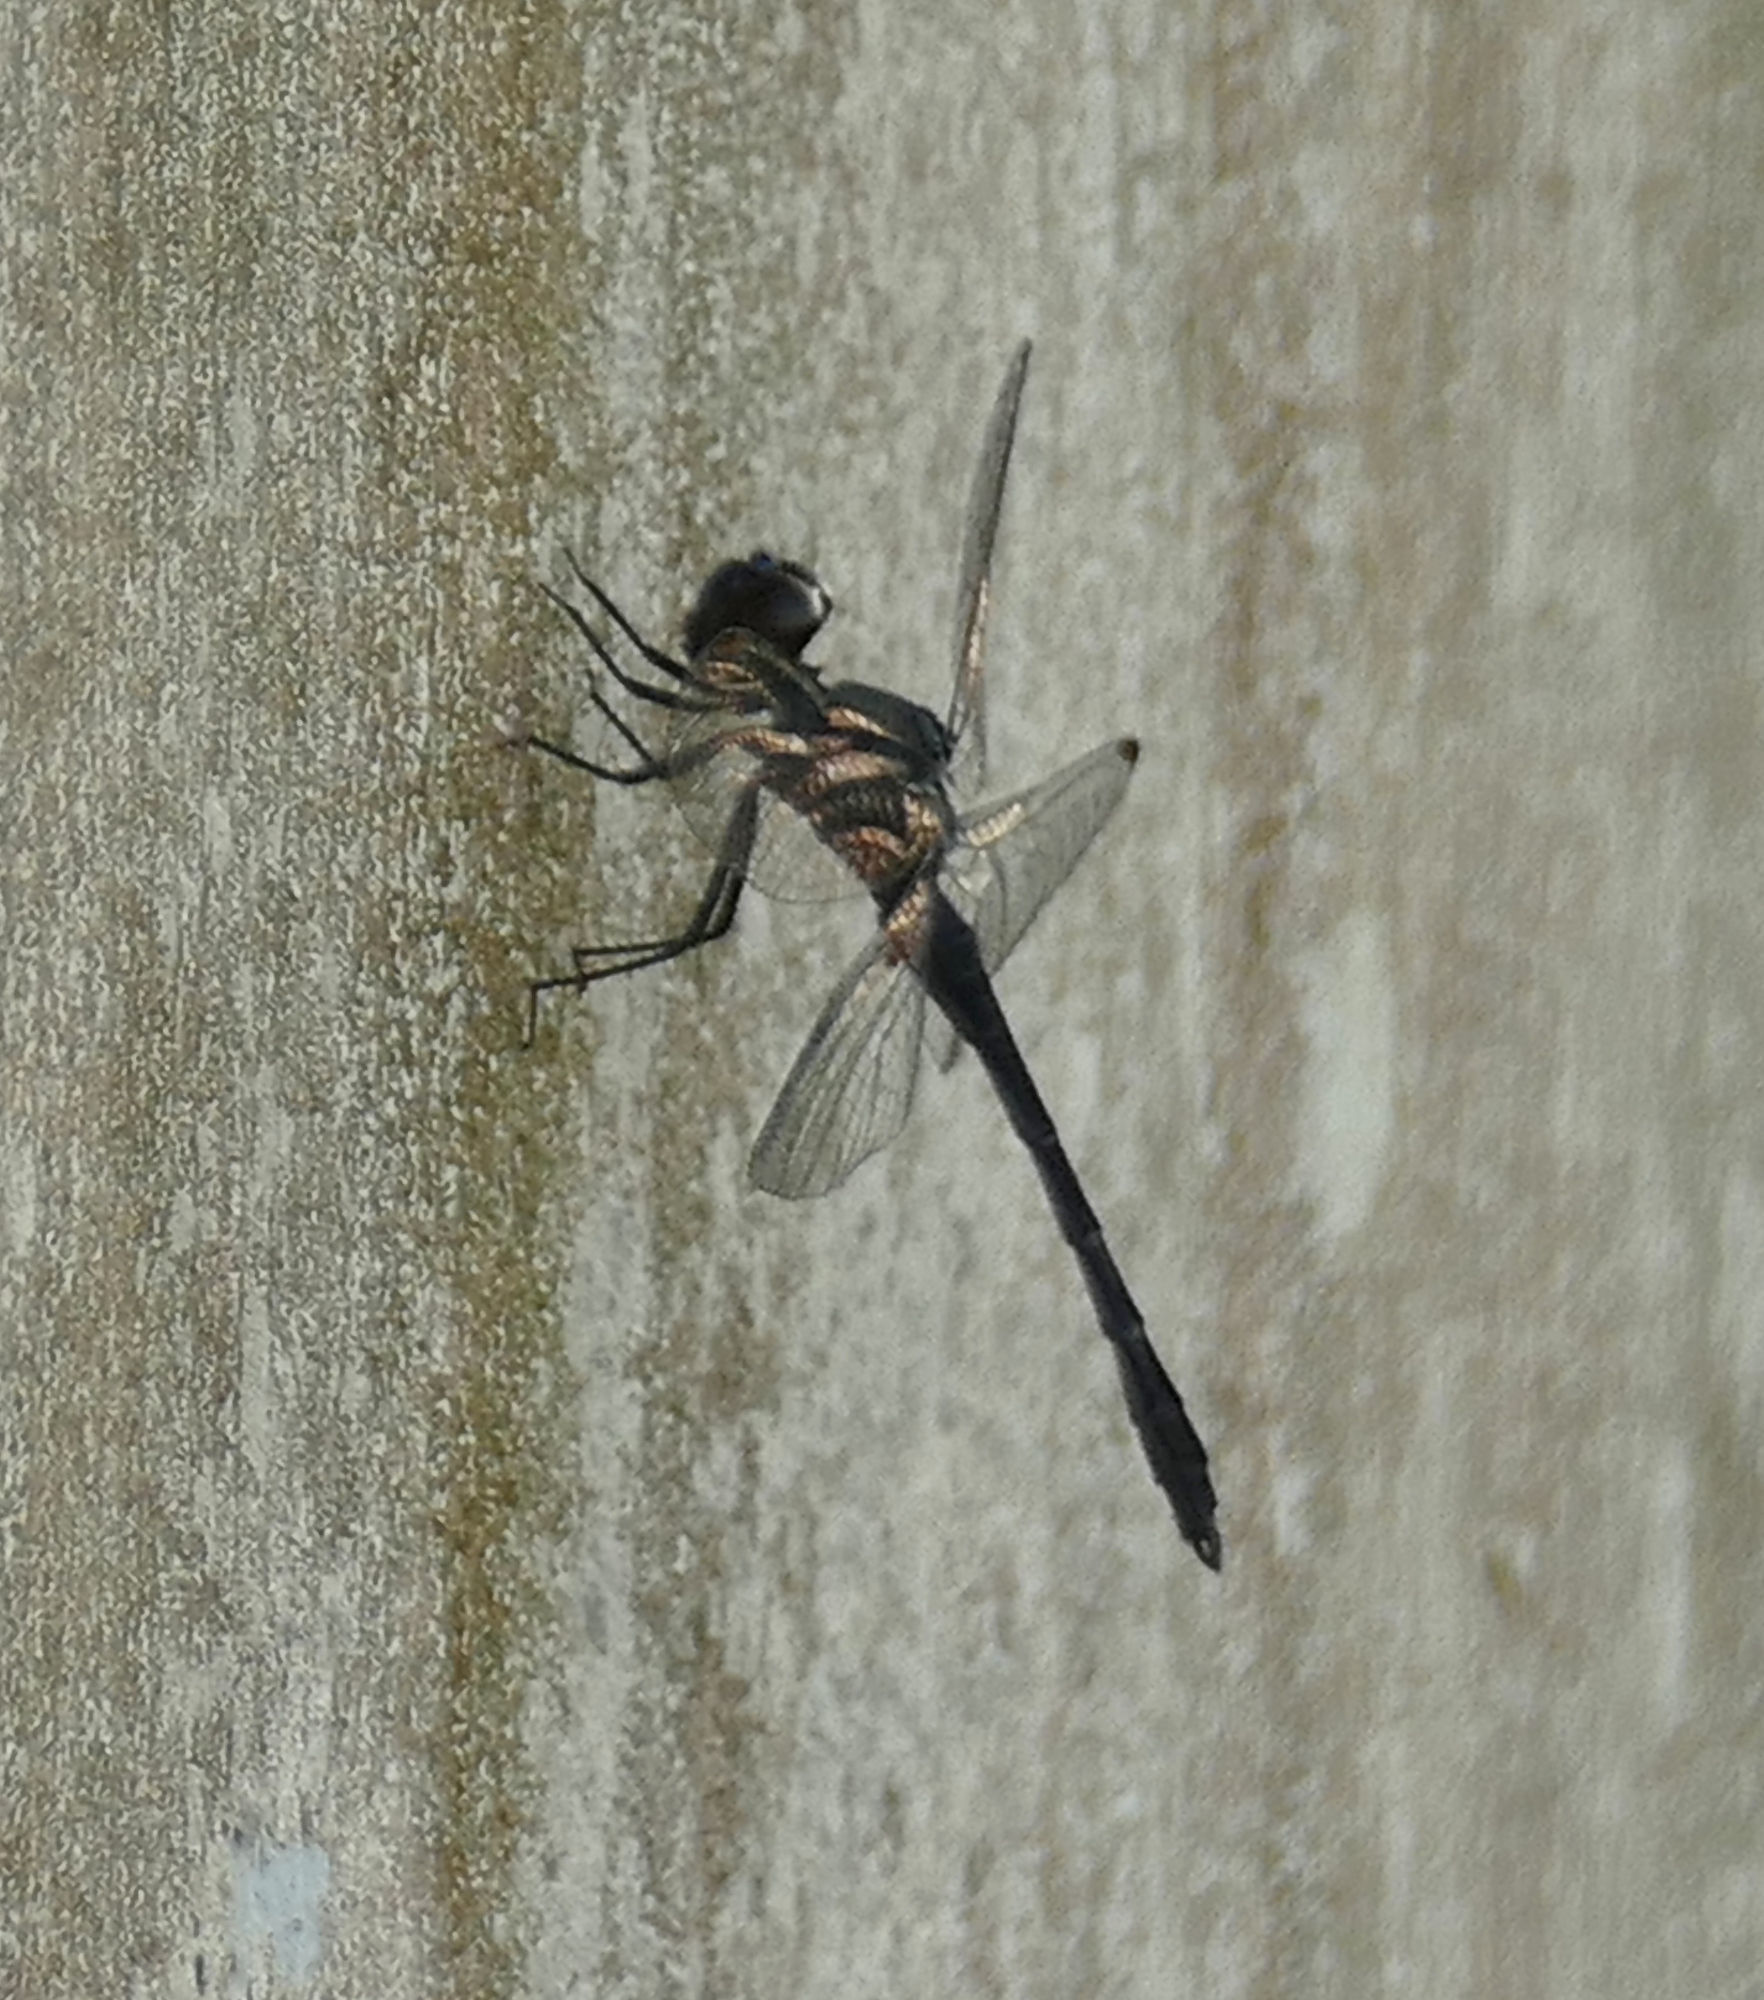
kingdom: Animalia
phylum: Arthropoda
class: Insecta
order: Odonata
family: Libellulidae
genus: Erythrodiplax
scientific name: Erythrodiplax berenice
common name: Seaside dragonlet
